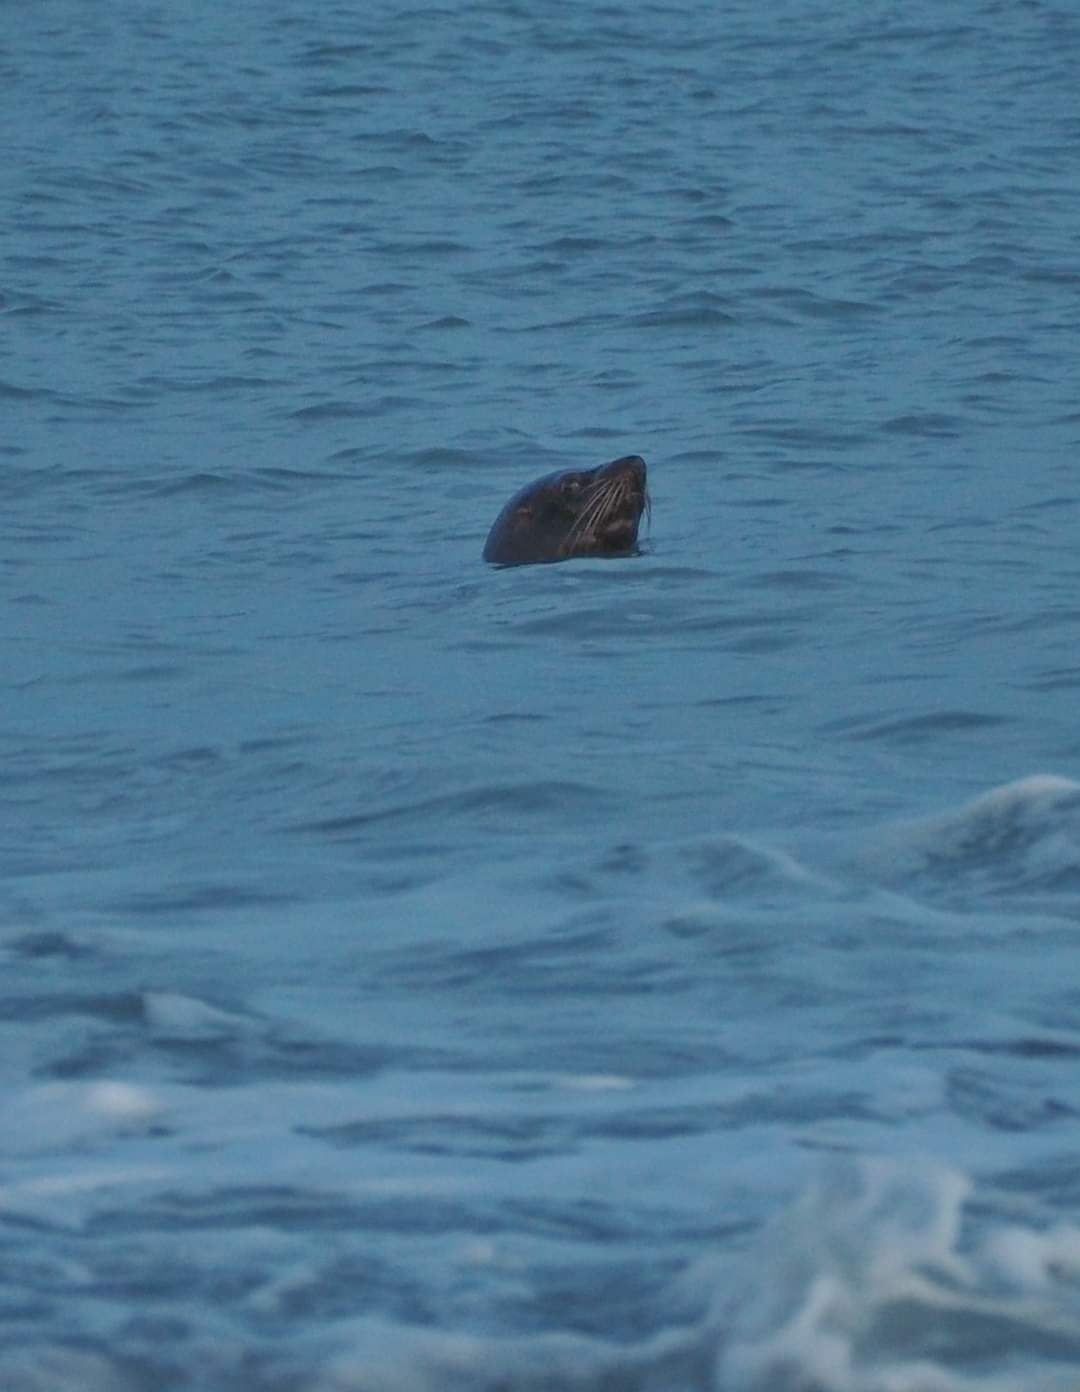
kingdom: Animalia
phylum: Chordata
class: Mammalia
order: Carnivora
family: Otariidae
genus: Arctocephalus
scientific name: Arctocephalus forsteri
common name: New zealand fur seal
